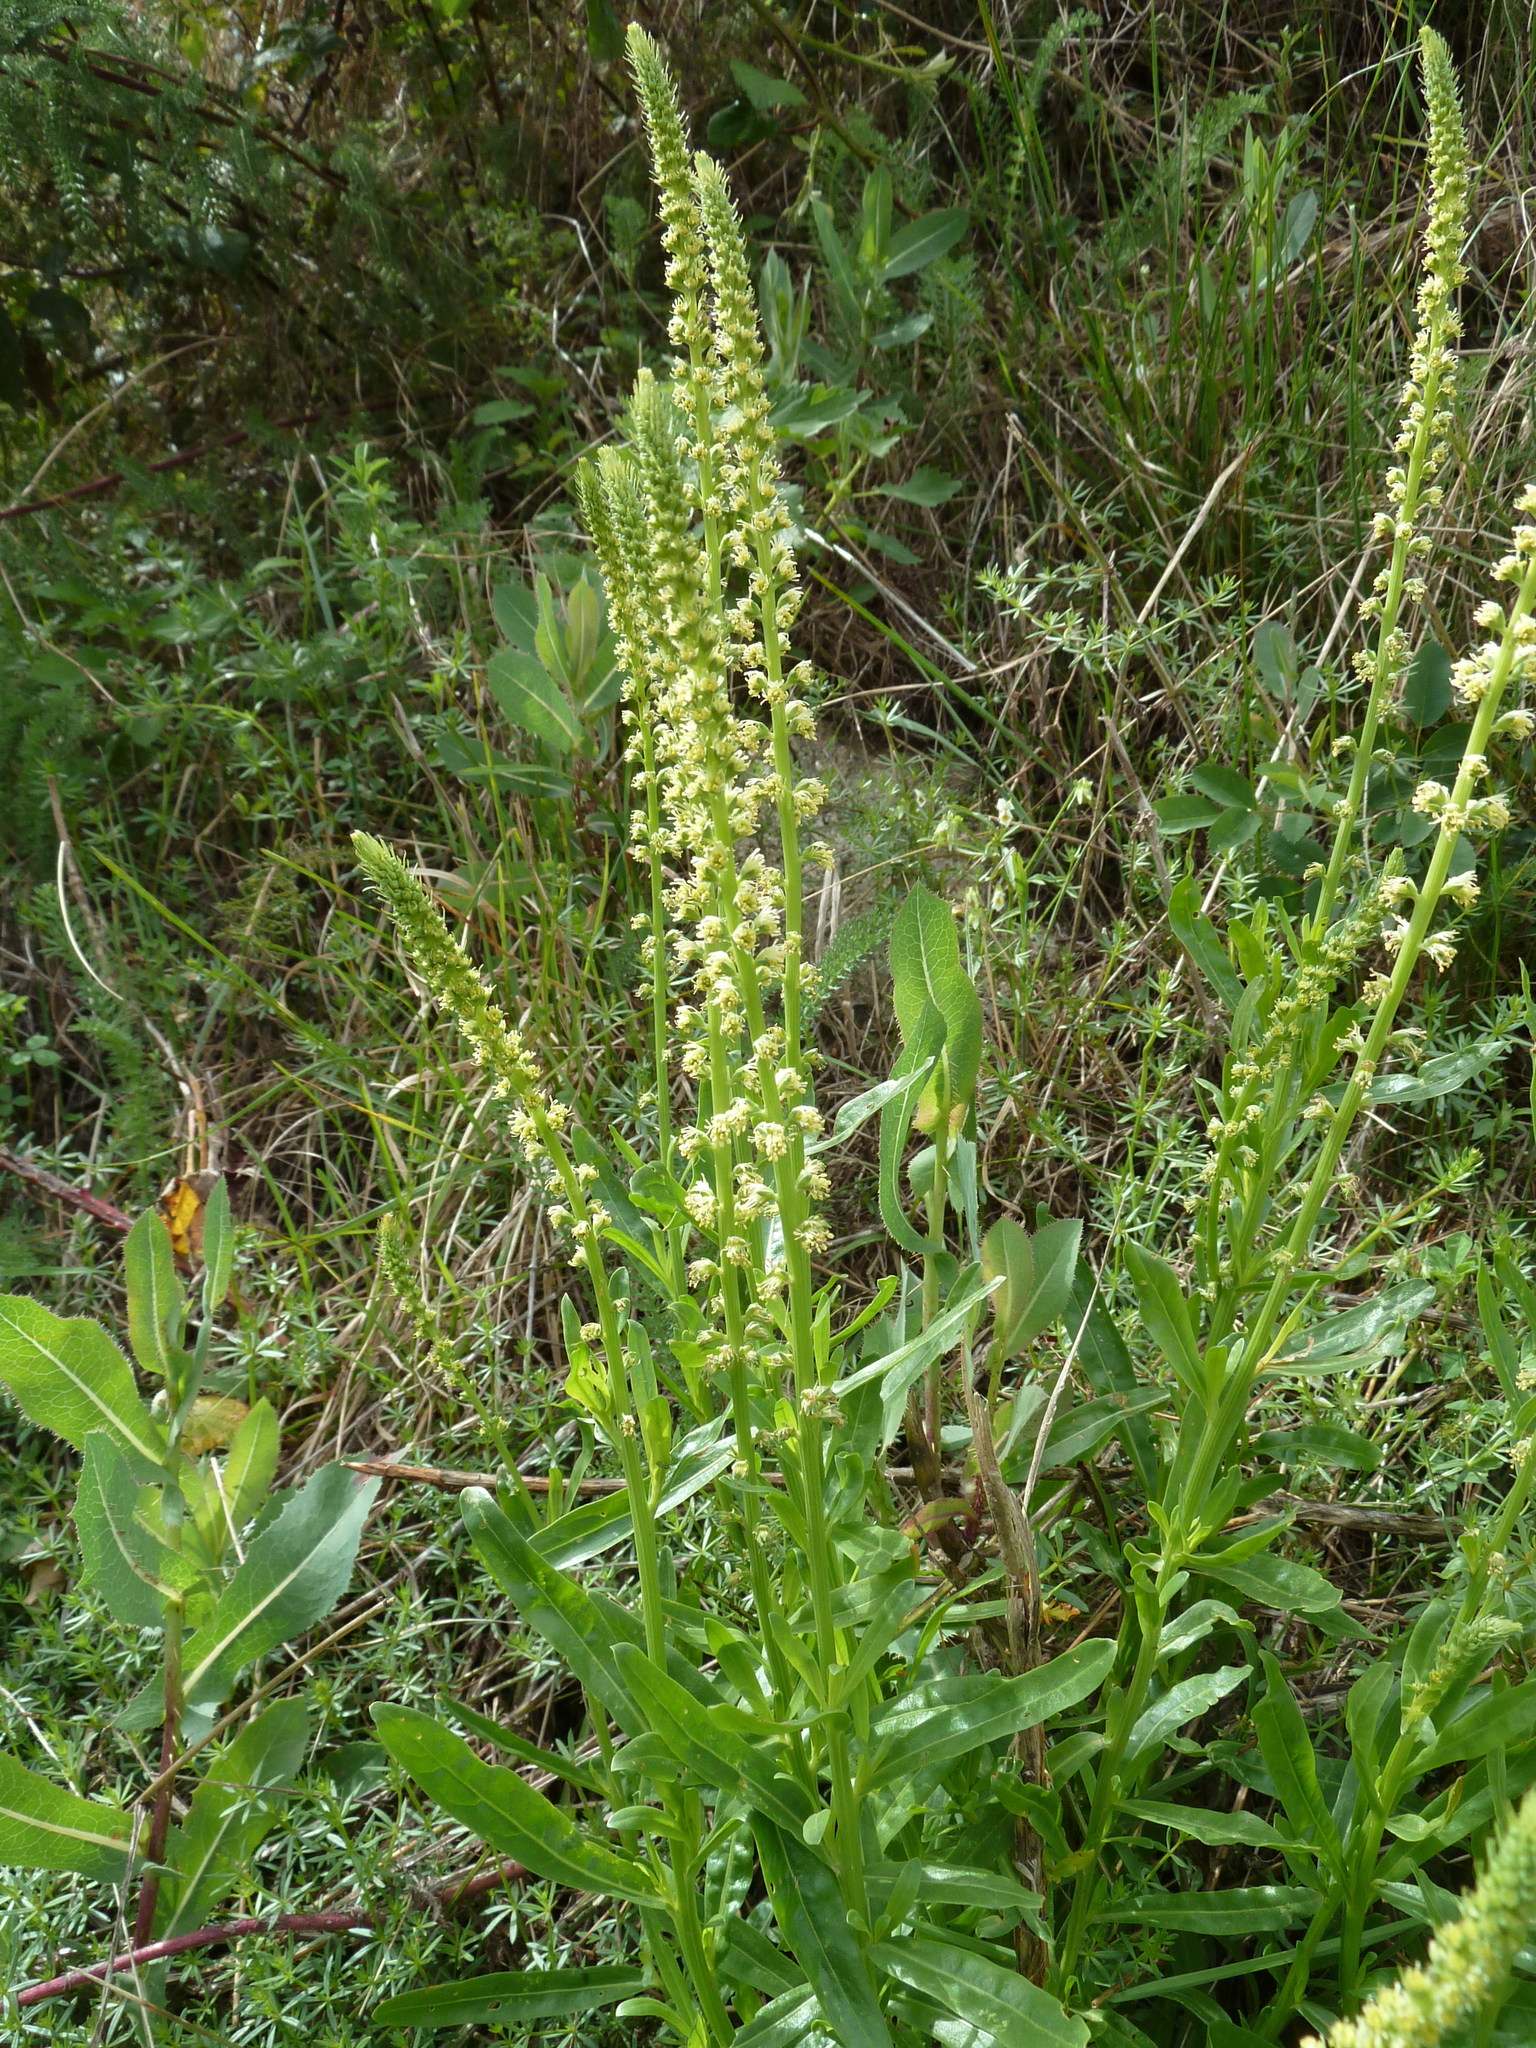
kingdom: Plantae
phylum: Tracheophyta
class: Magnoliopsida
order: Brassicales
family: Resedaceae
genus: Reseda
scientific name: Reseda luteola
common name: Weld
